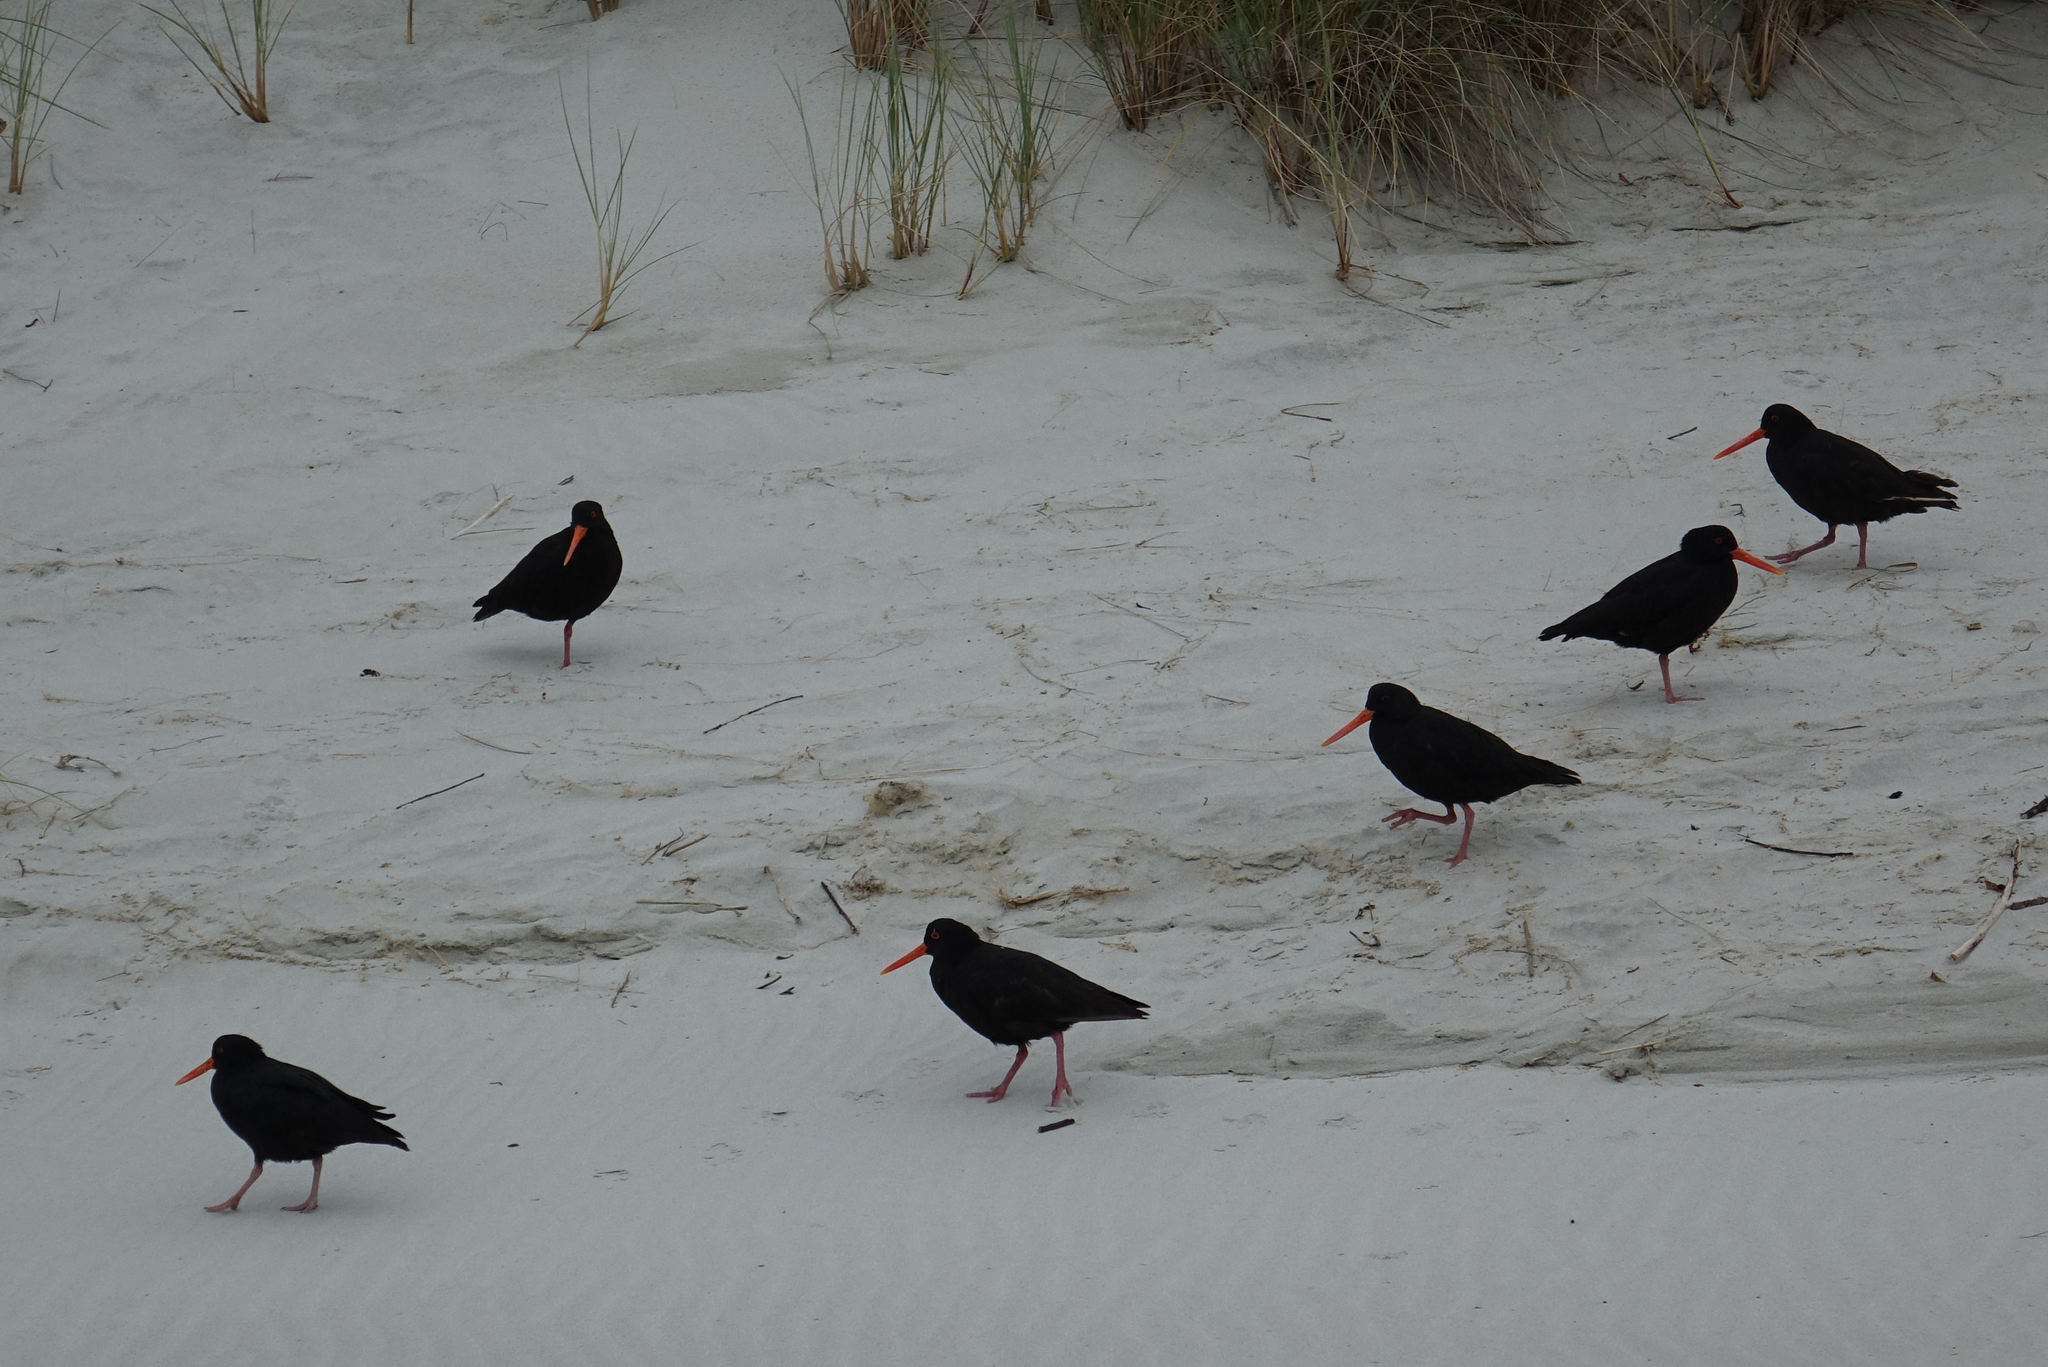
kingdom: Animalia
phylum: Chordata
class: Aves
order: Charadriiformes
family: Haematopodidae
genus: Haematopus
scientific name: Haematopus unicolor
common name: Variable oystercatcher
